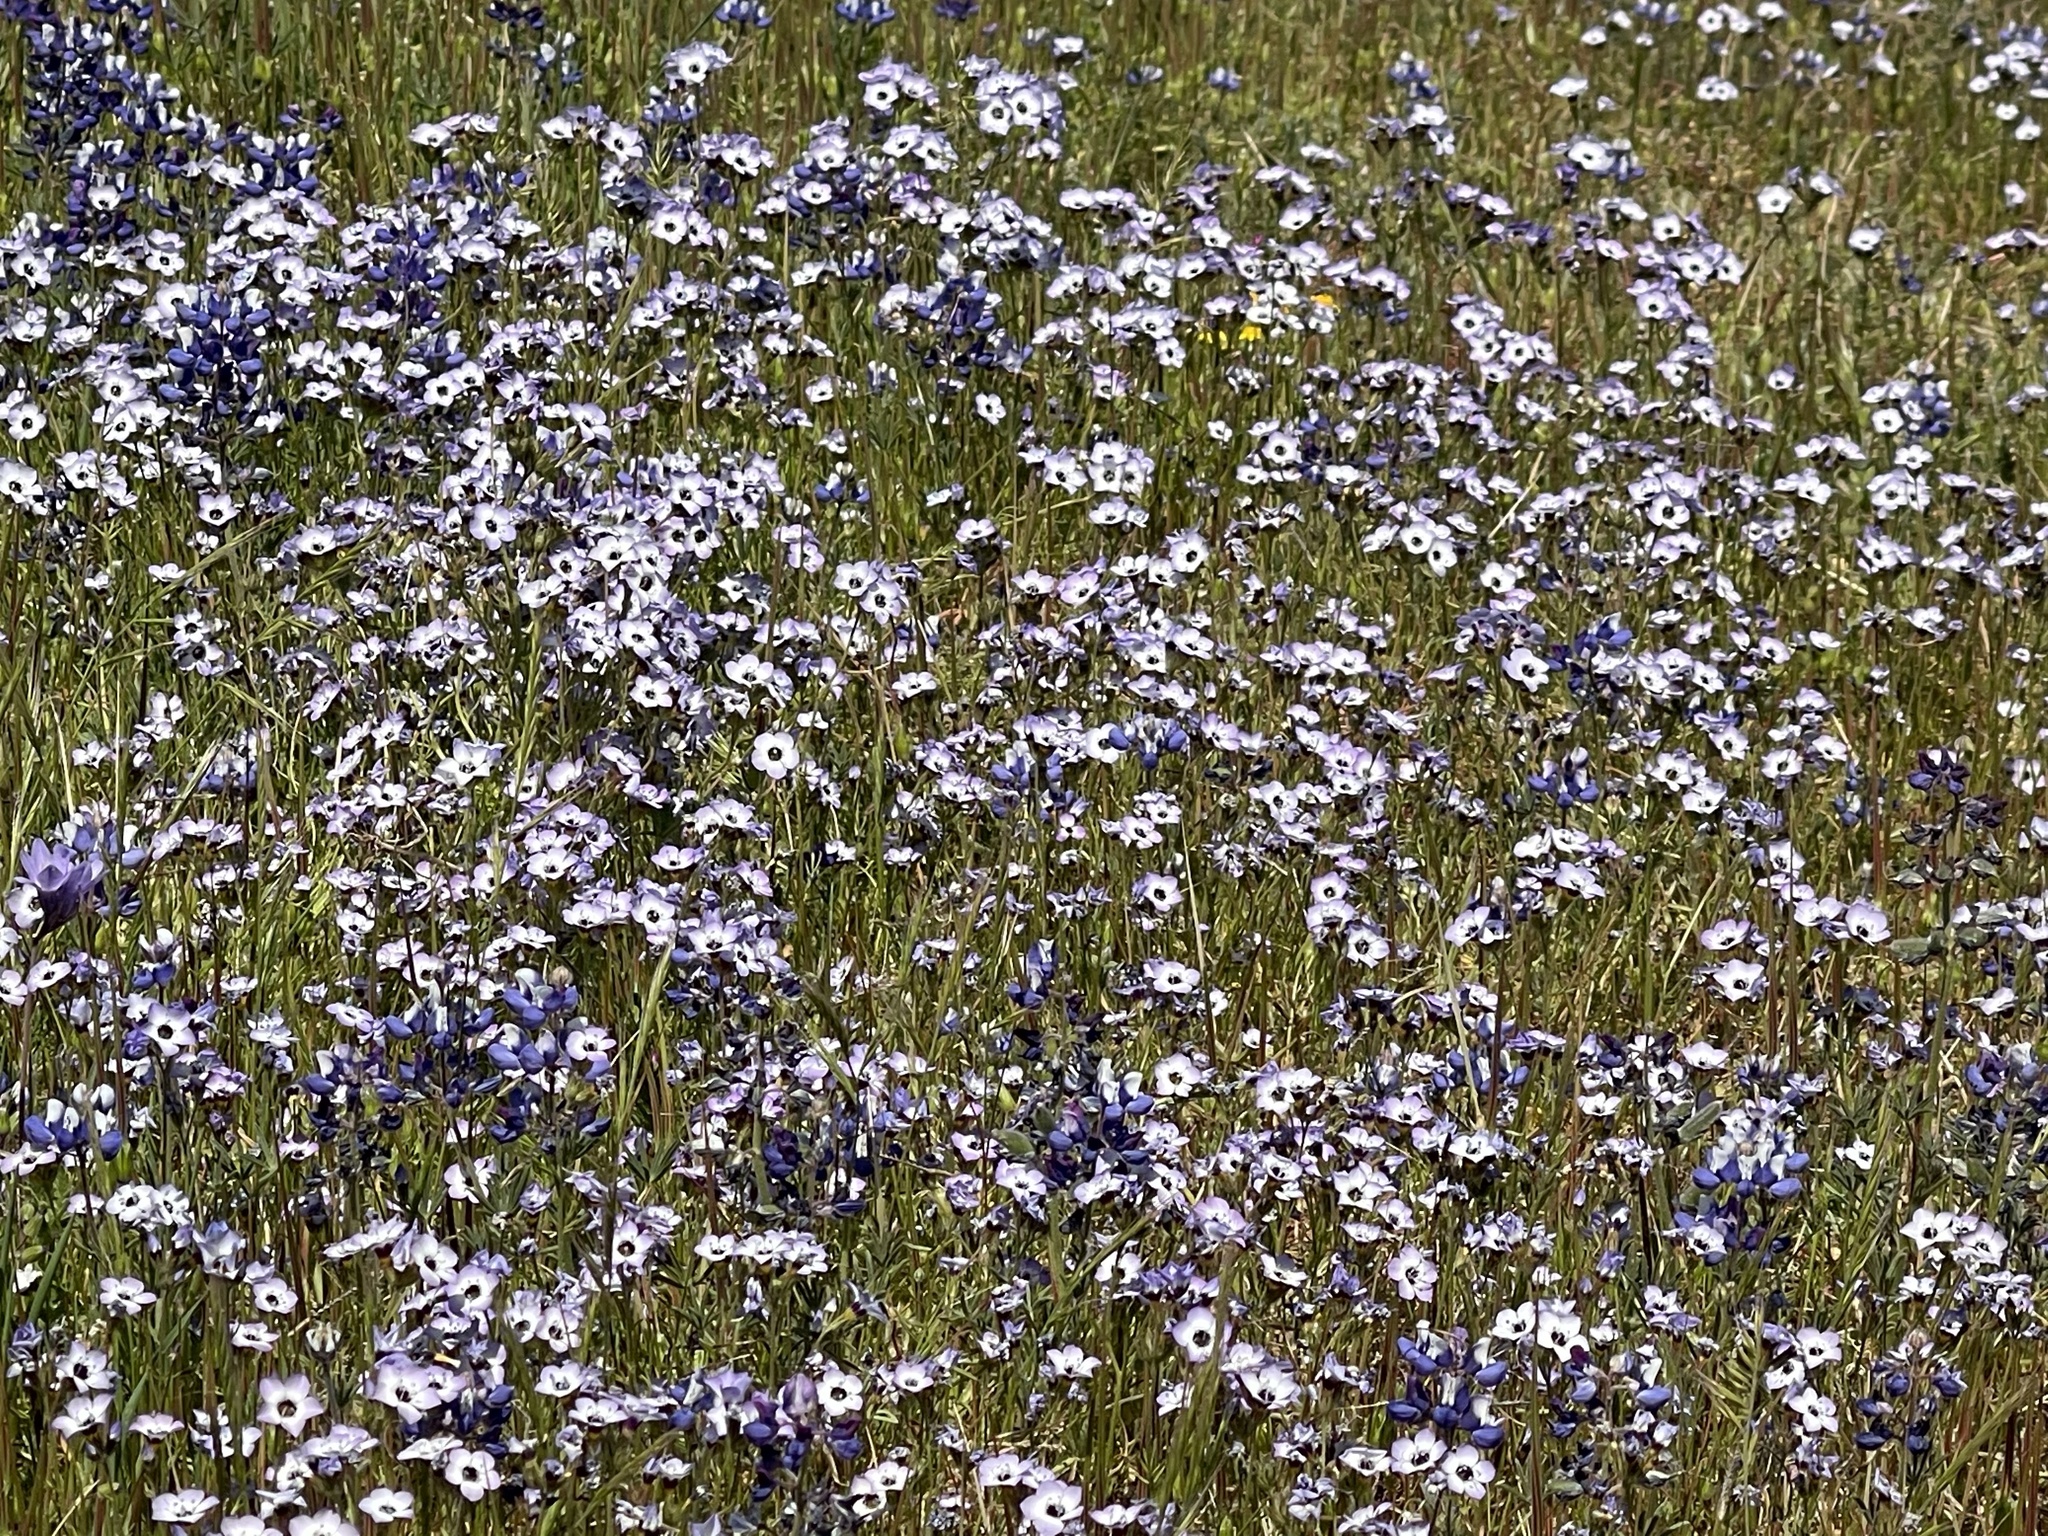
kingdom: Plantae
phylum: Tracheophyta
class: Magnoliopsida
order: Ericales
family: Polemoniaceae
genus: Gilia
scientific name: Gilia tricolor
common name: Bird's-eyes
